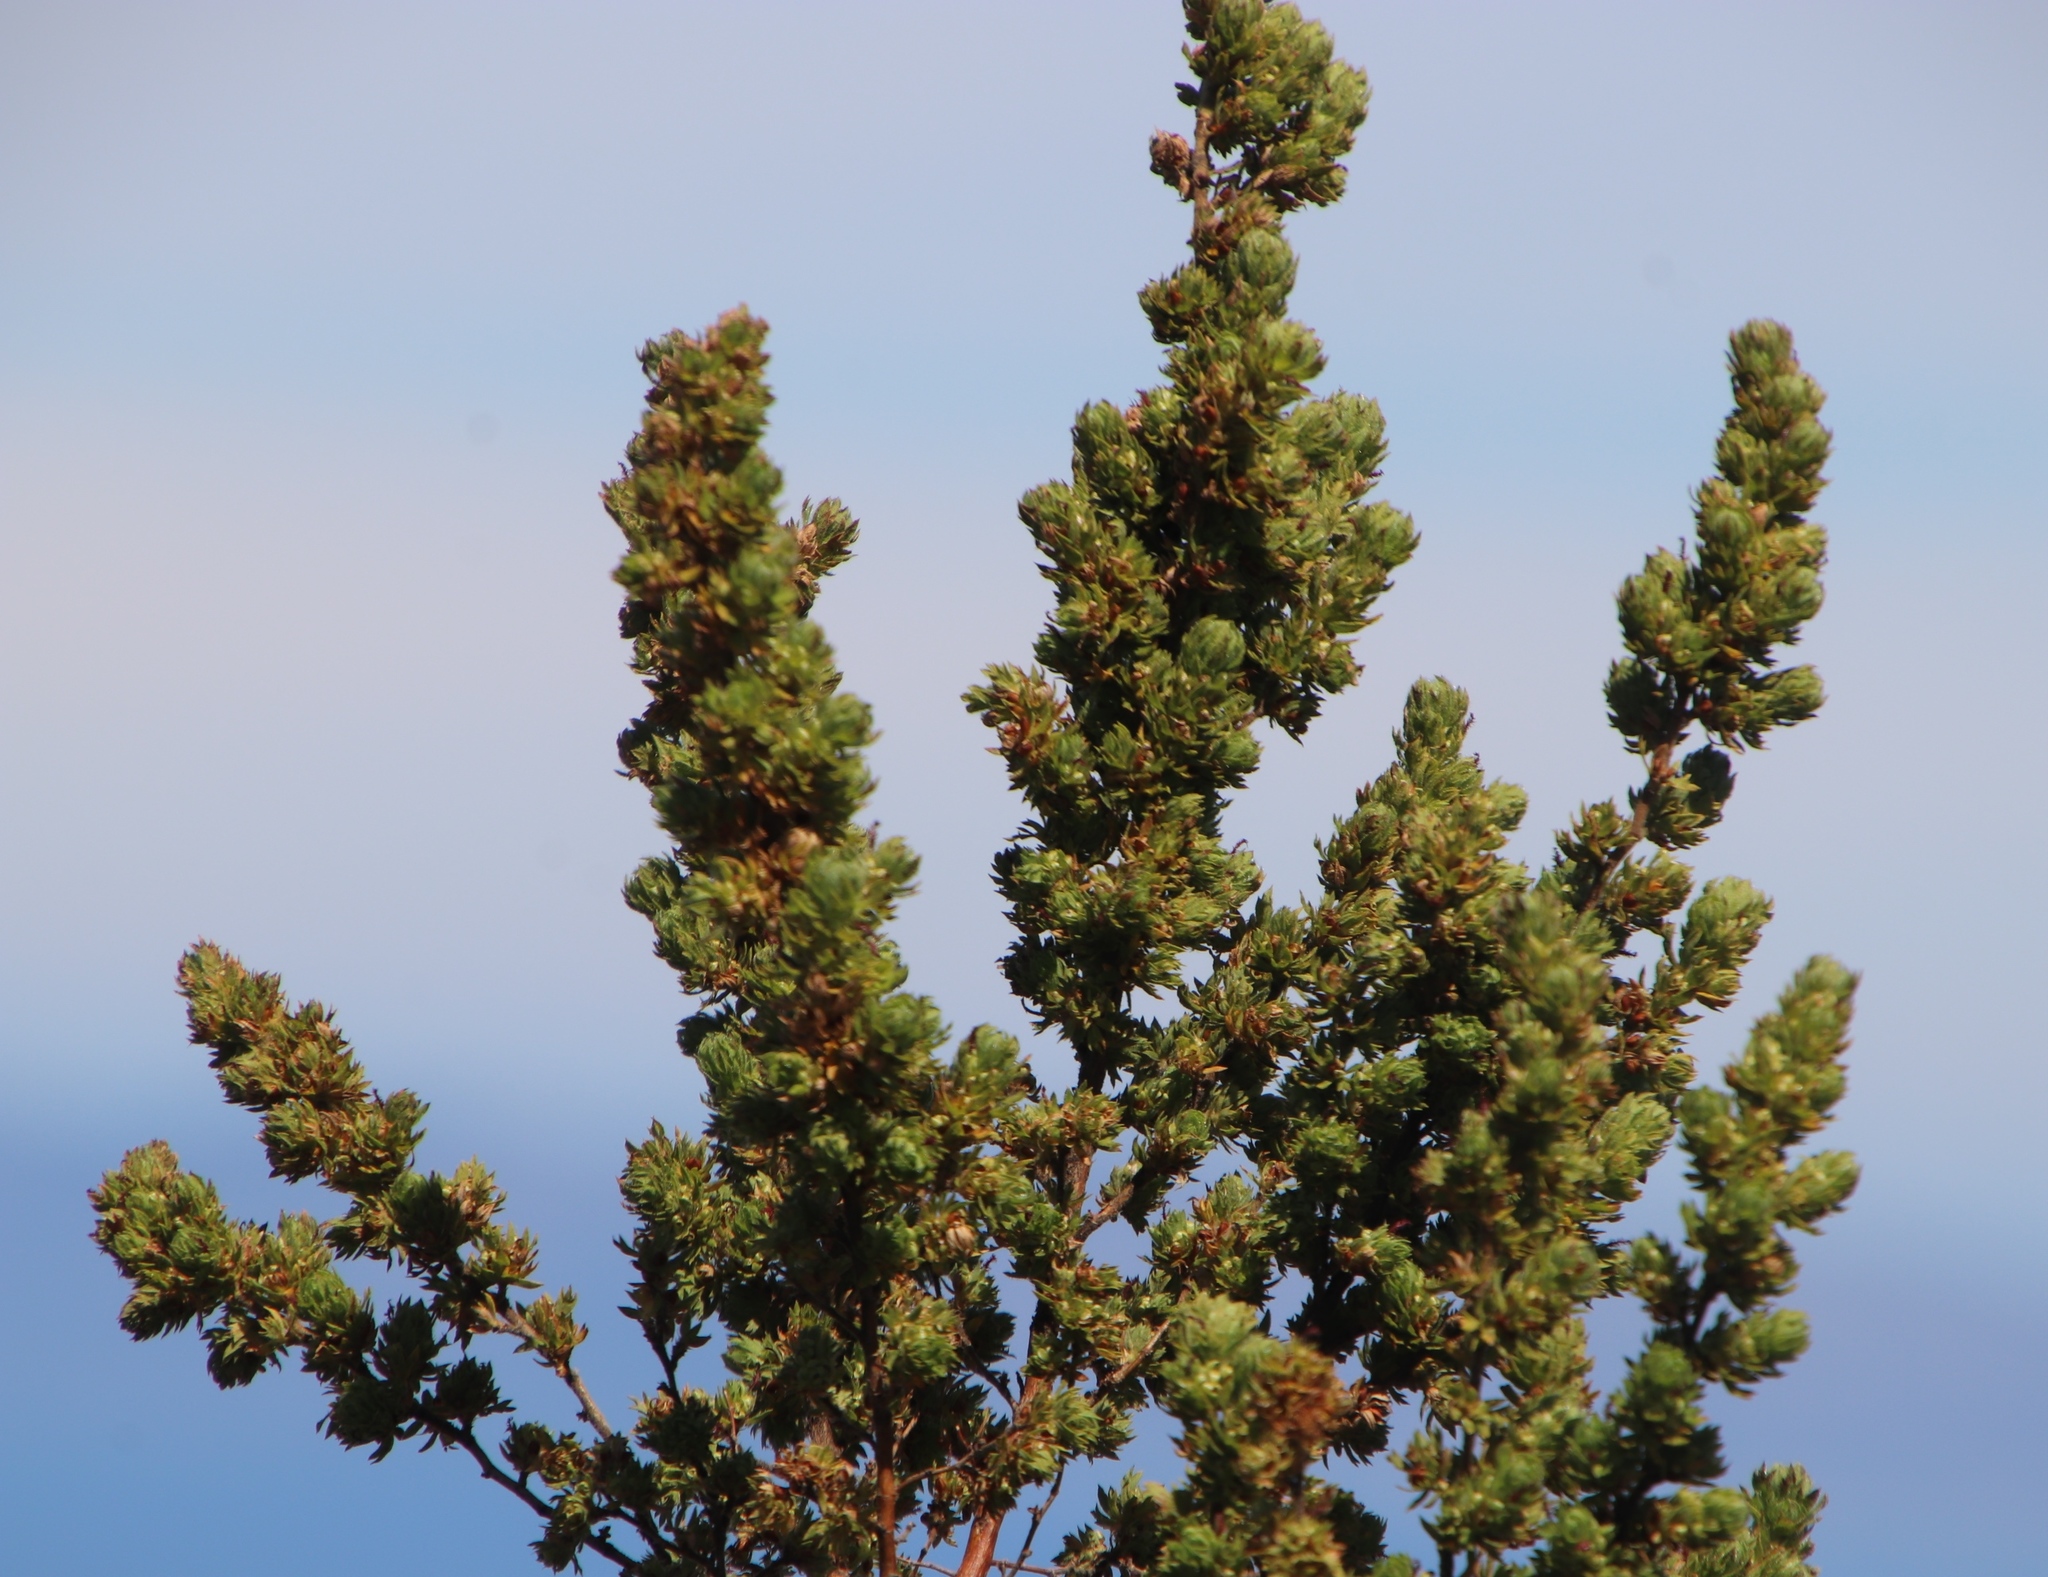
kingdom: Plantae
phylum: Tracheophyta
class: Magnoliopsida
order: Rosales
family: Rosaceae
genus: Cliffortia
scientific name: Cliffortia polygonifolia
